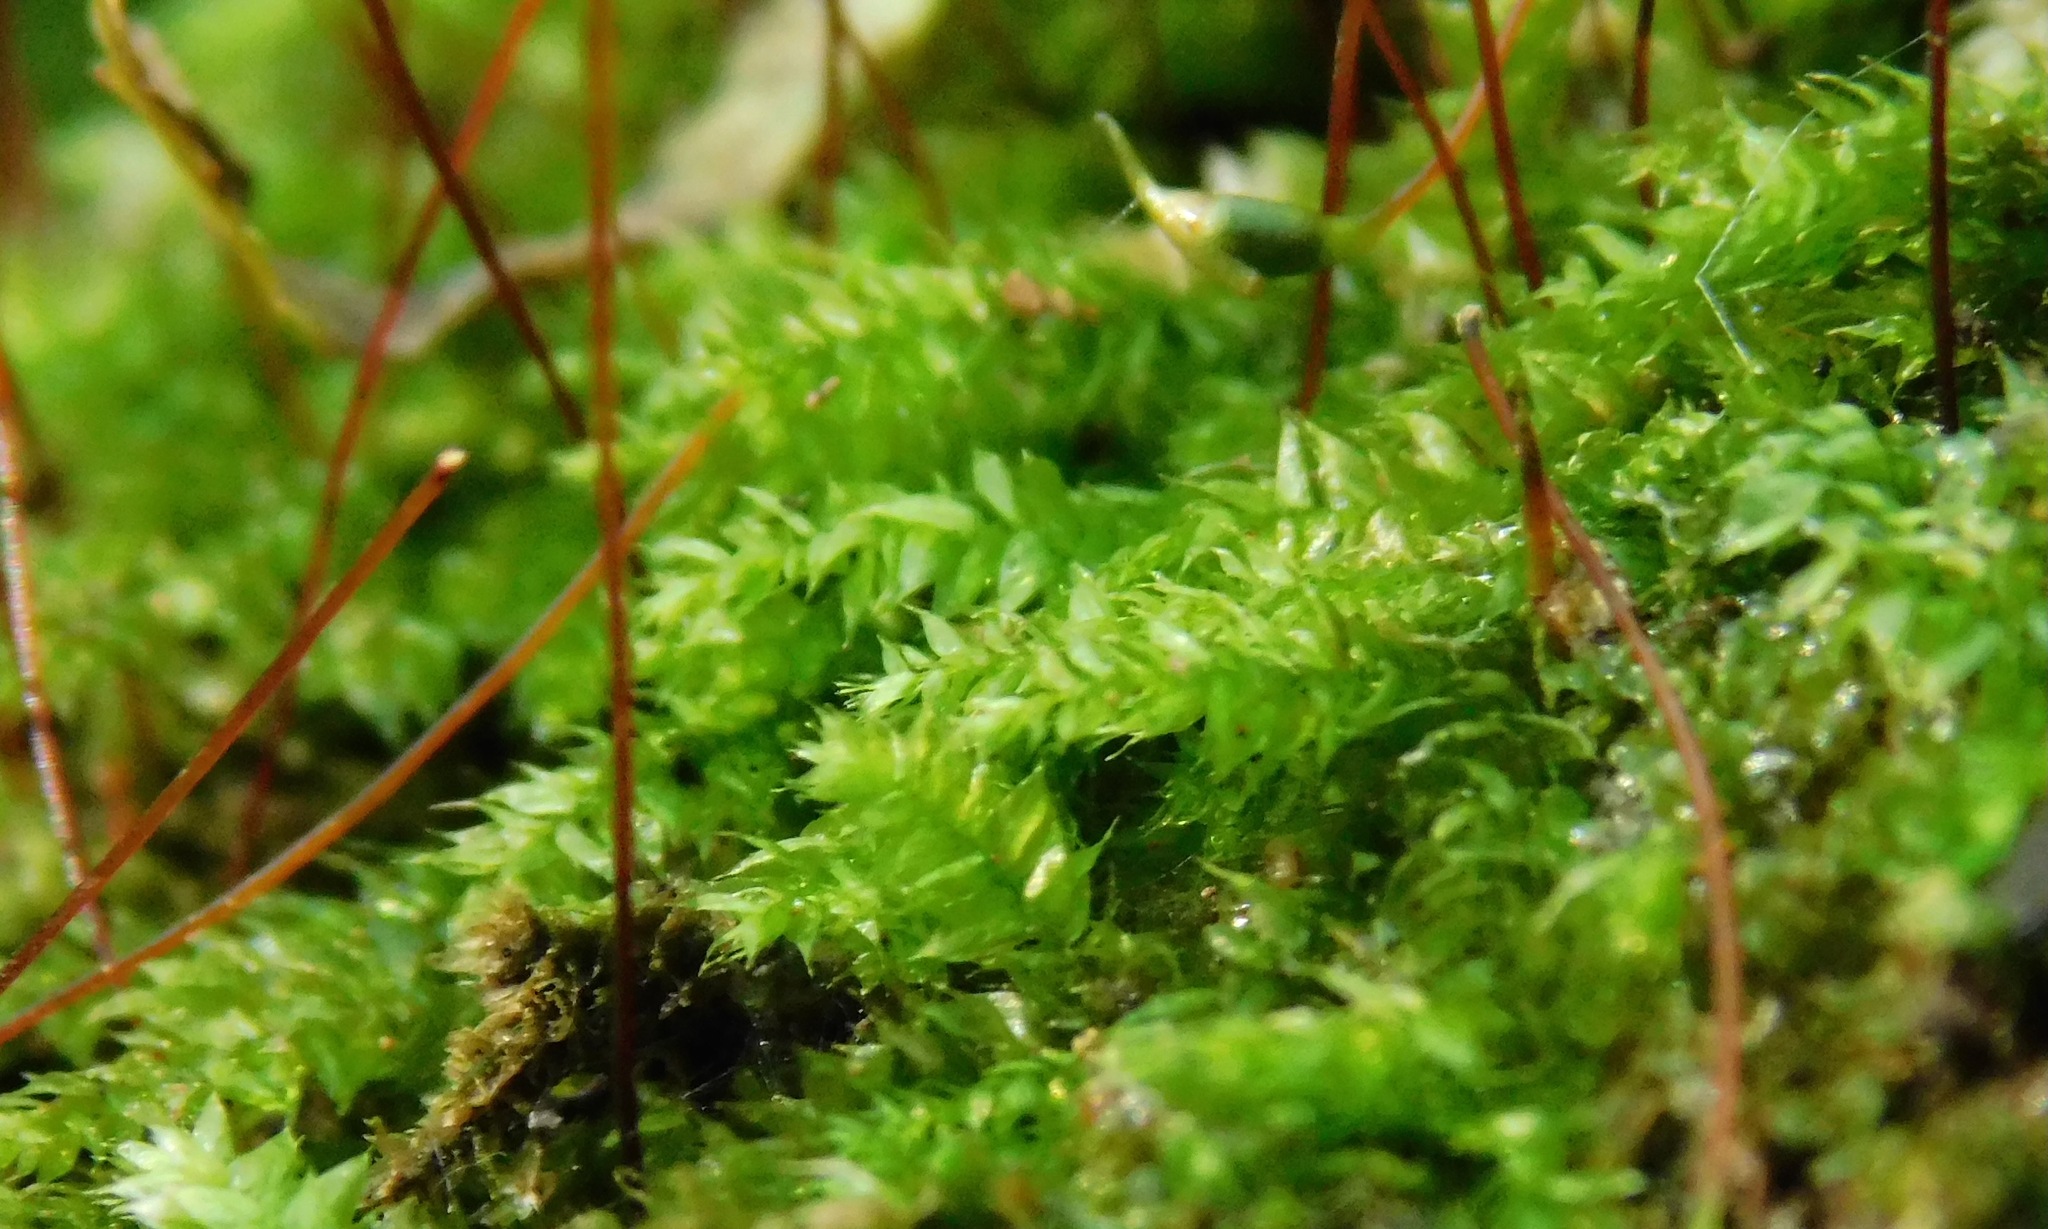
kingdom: Plantae
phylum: Bryophyta
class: Bryopsida
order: Hypnales
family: Pylaisiadelphaceae
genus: Brotherella
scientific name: Brotherella recurvans
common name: Recurved brotherella
